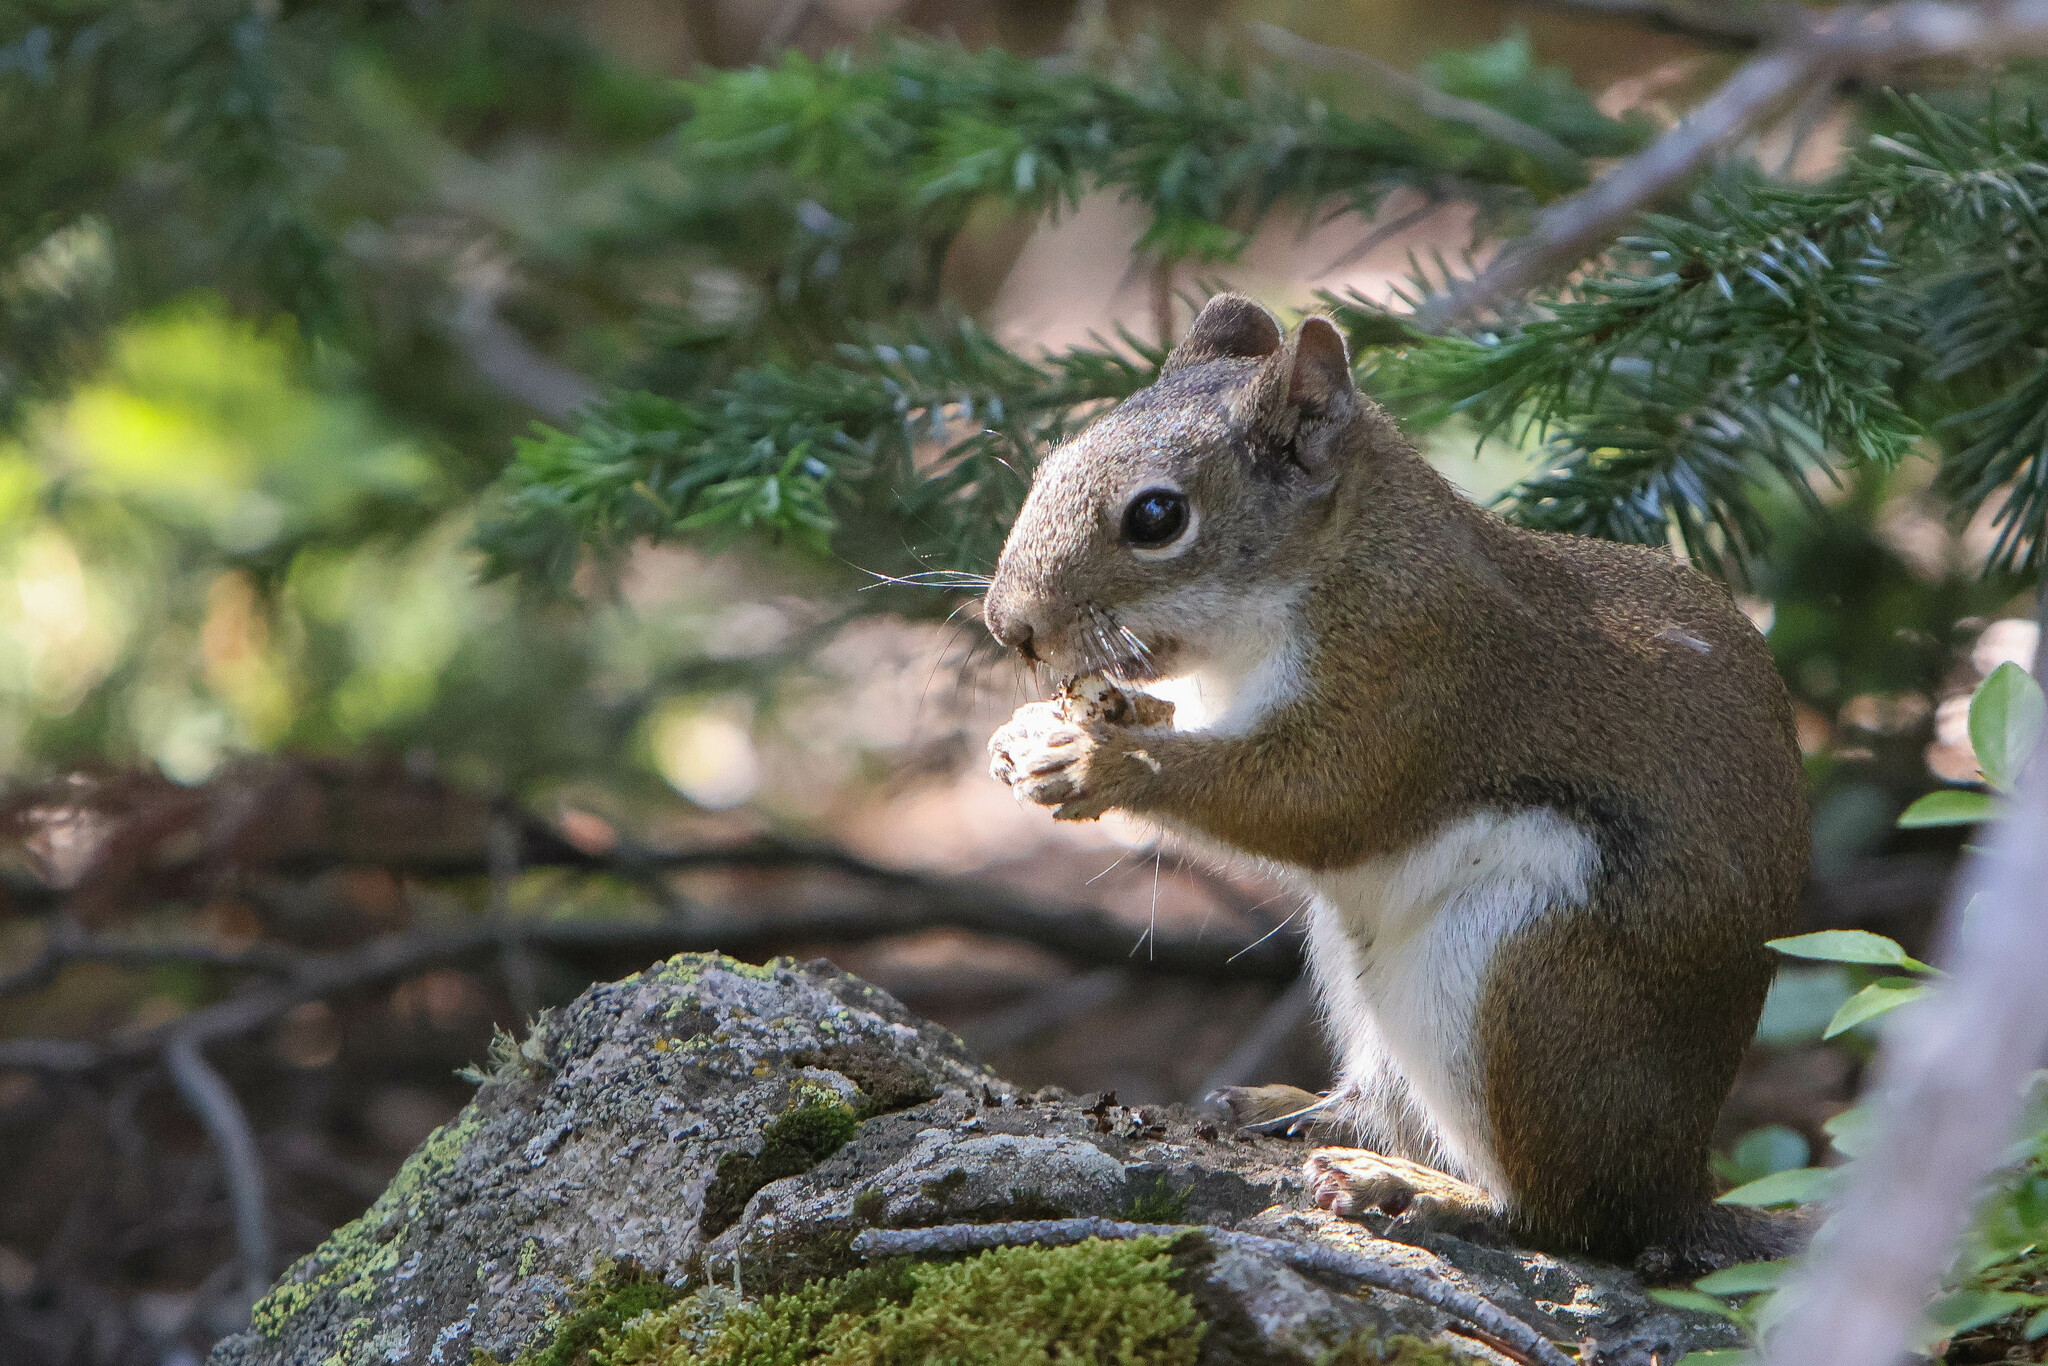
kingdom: Animalia
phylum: Chordata
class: Mammalia
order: Rodentia
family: Sciuridae
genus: Tamiasciurus
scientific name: Tamiasciurus hudsonicus
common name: Red squirrel
